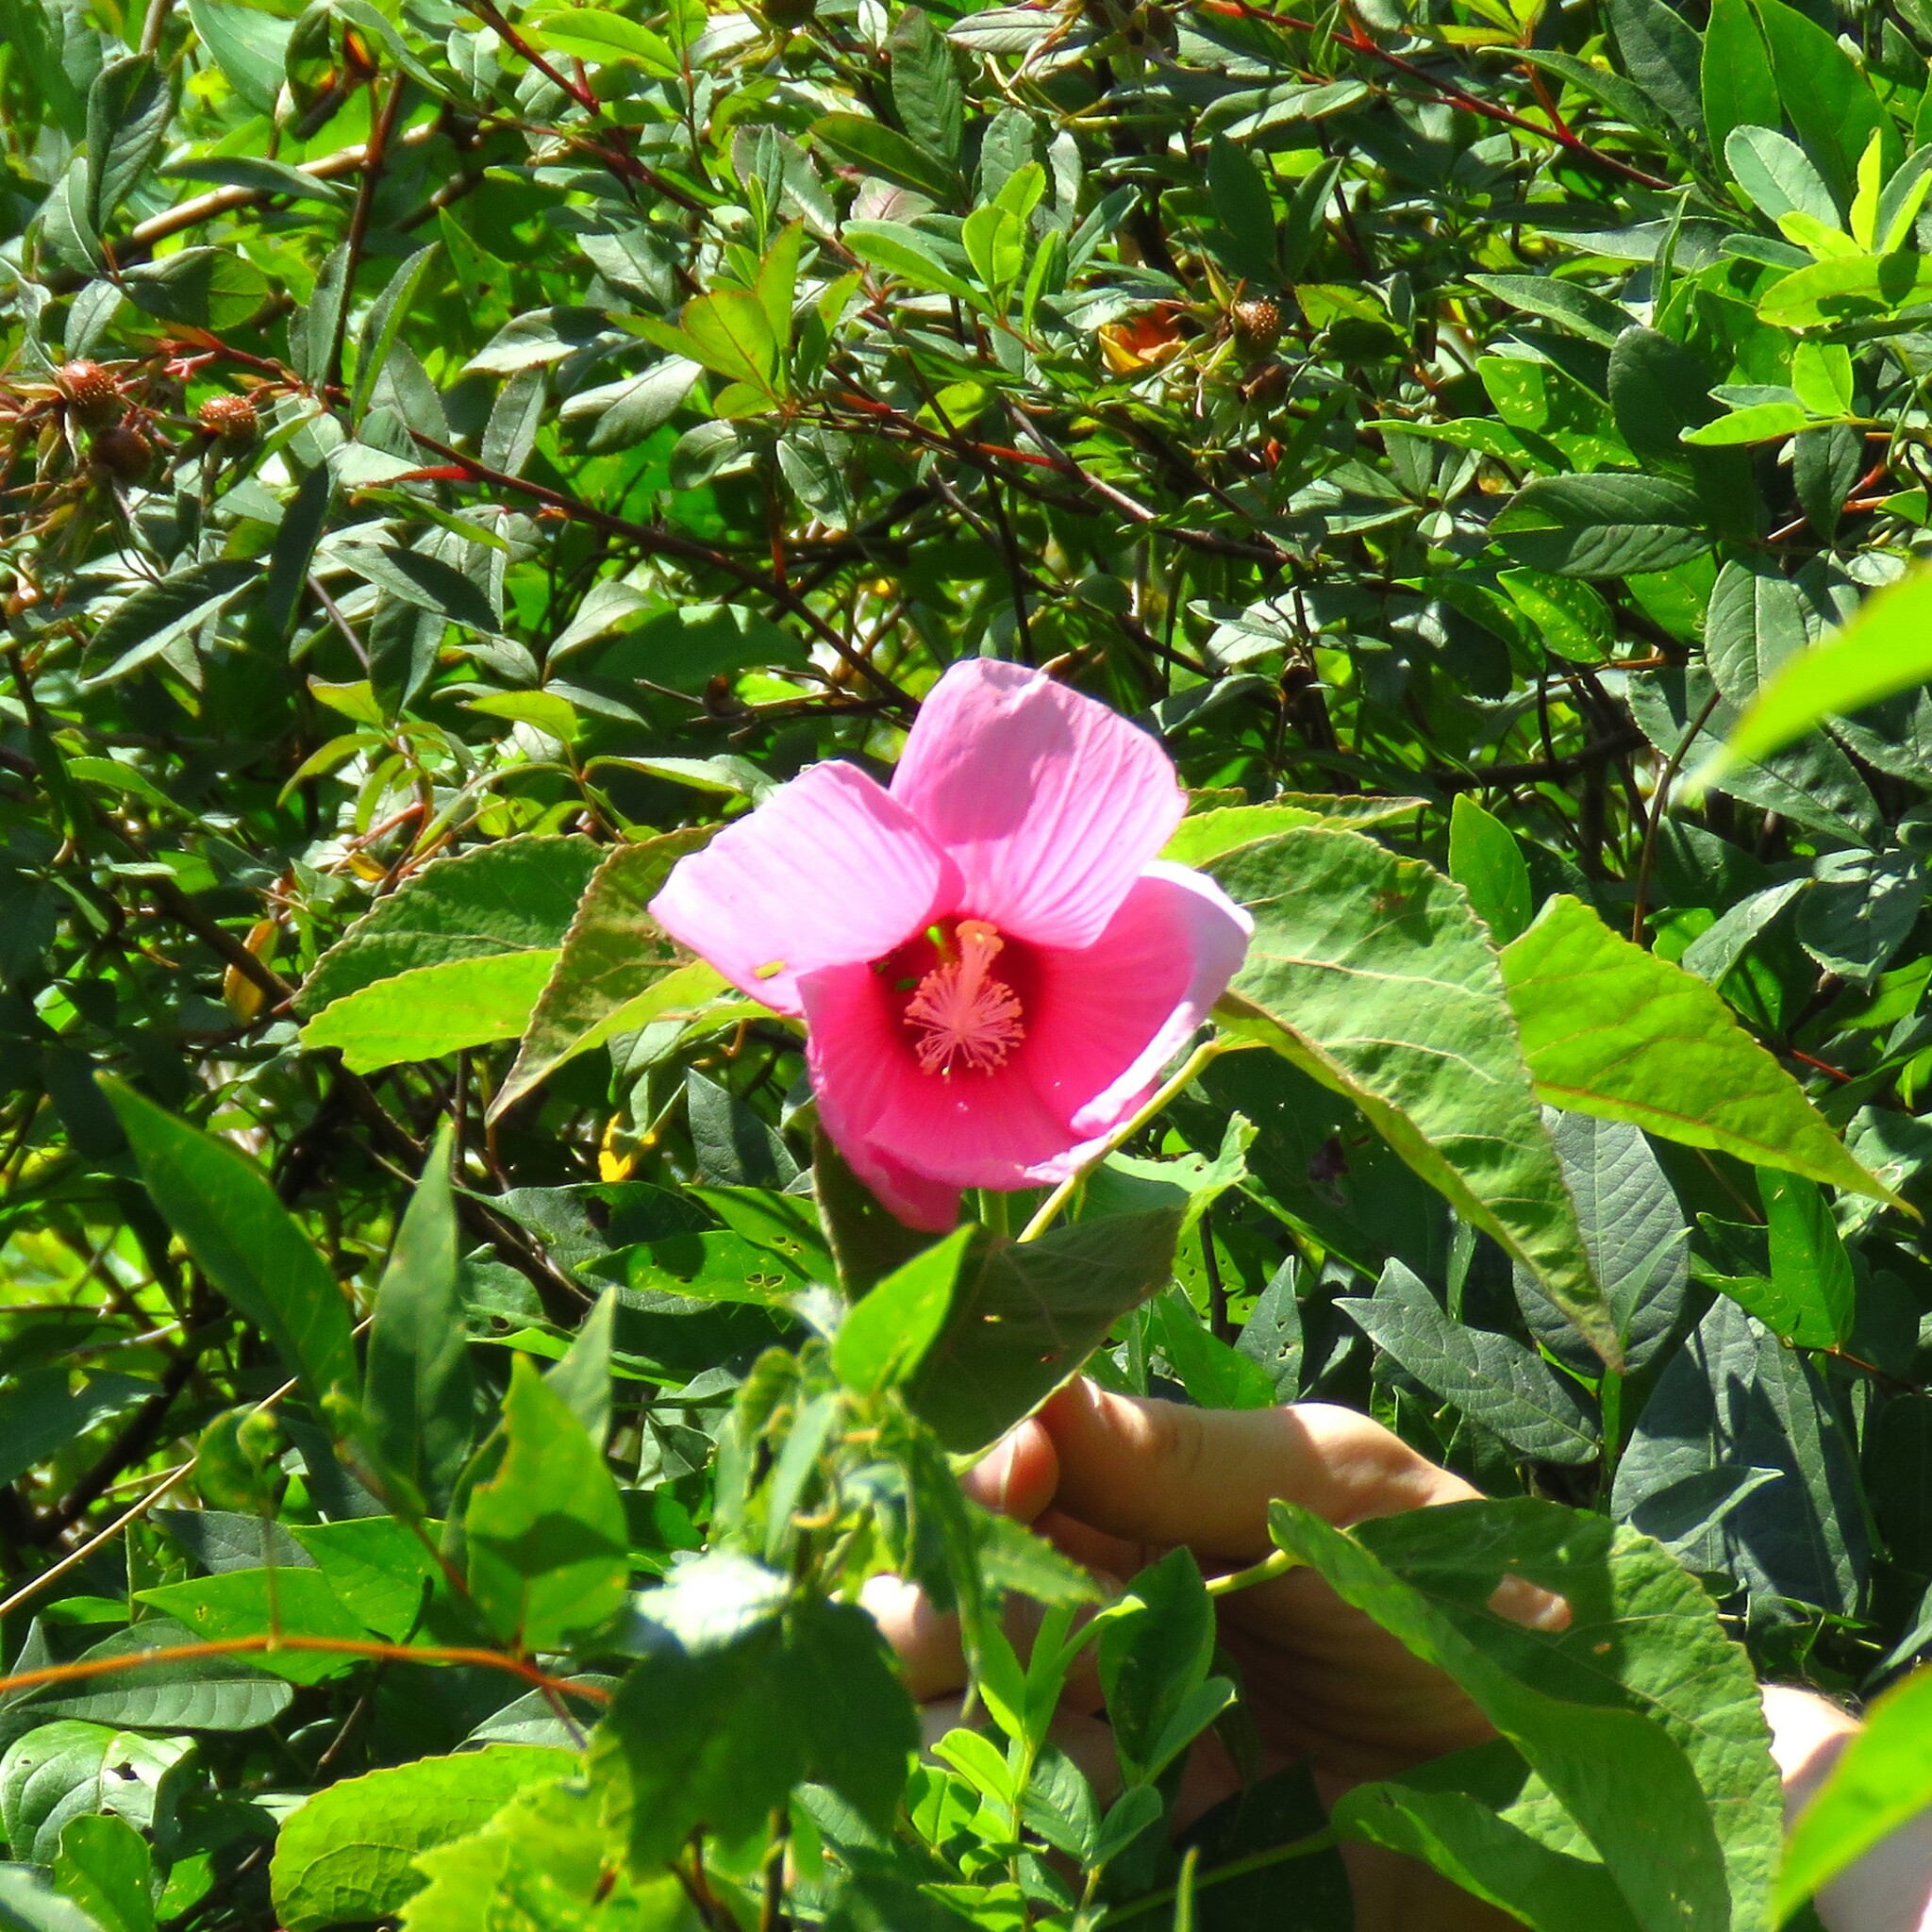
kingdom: Plantae
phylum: Tracheophyta
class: Magnoliopsida
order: Malvales
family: Malvaceae
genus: Hibiscus
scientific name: Hibiscus moscheutos
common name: Common rose-mallow
